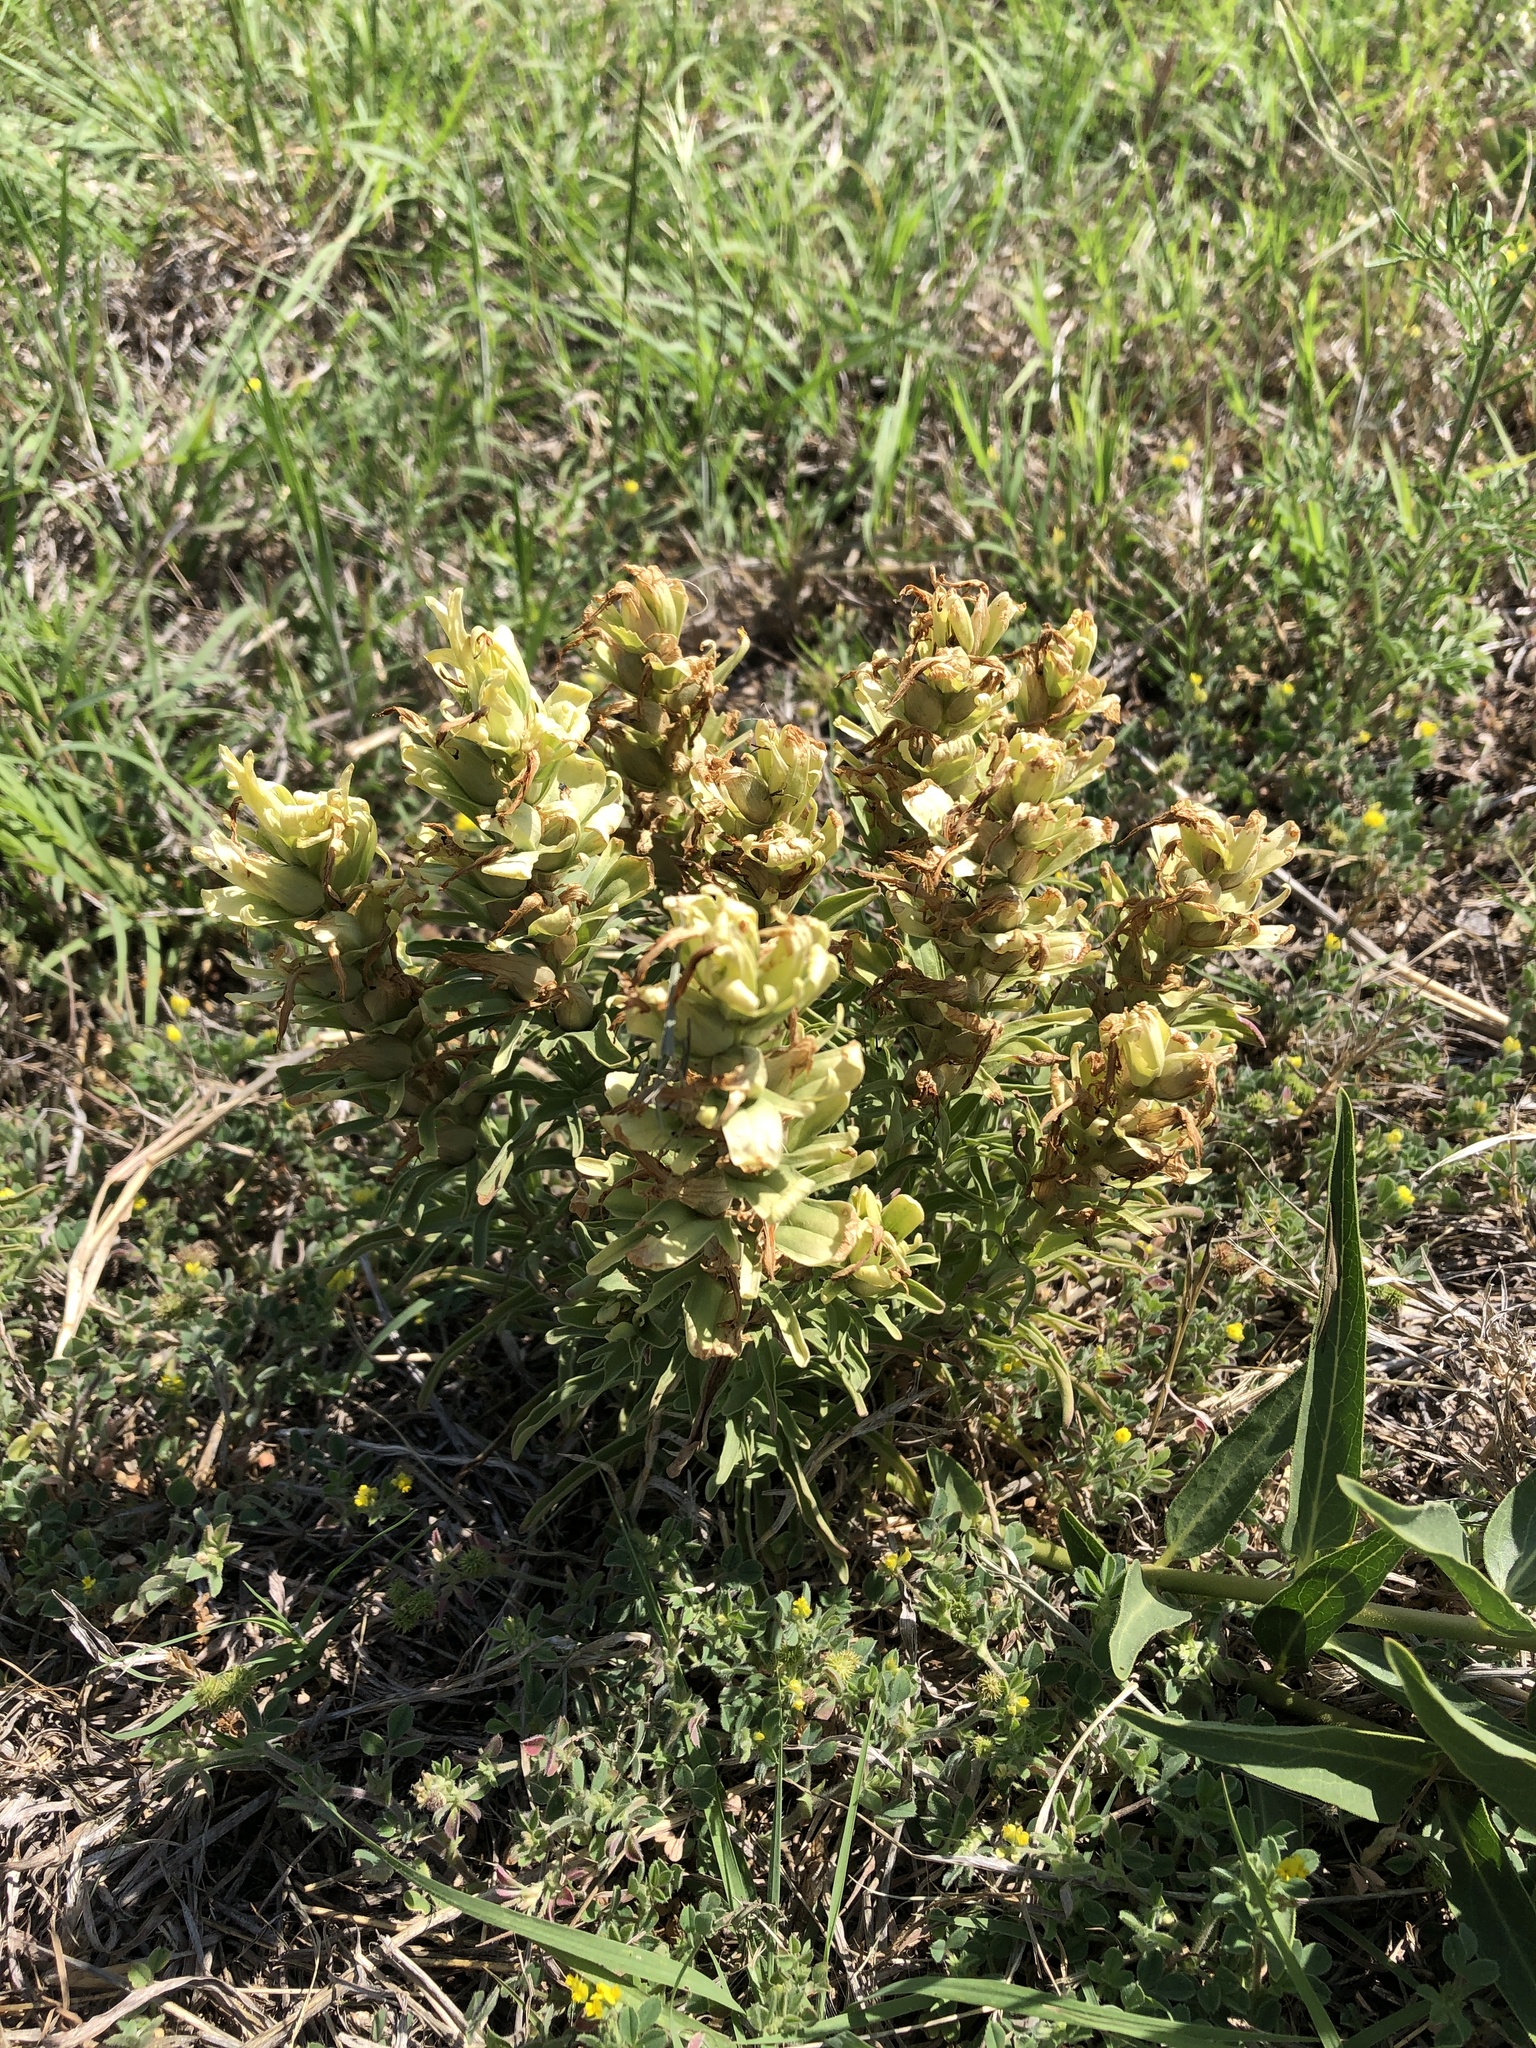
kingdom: Plantae
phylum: Tracheophyta
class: Magnoliopsida
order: Lamiales
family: Orobanchaceae
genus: Castilleja
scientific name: Castilleja citrina
